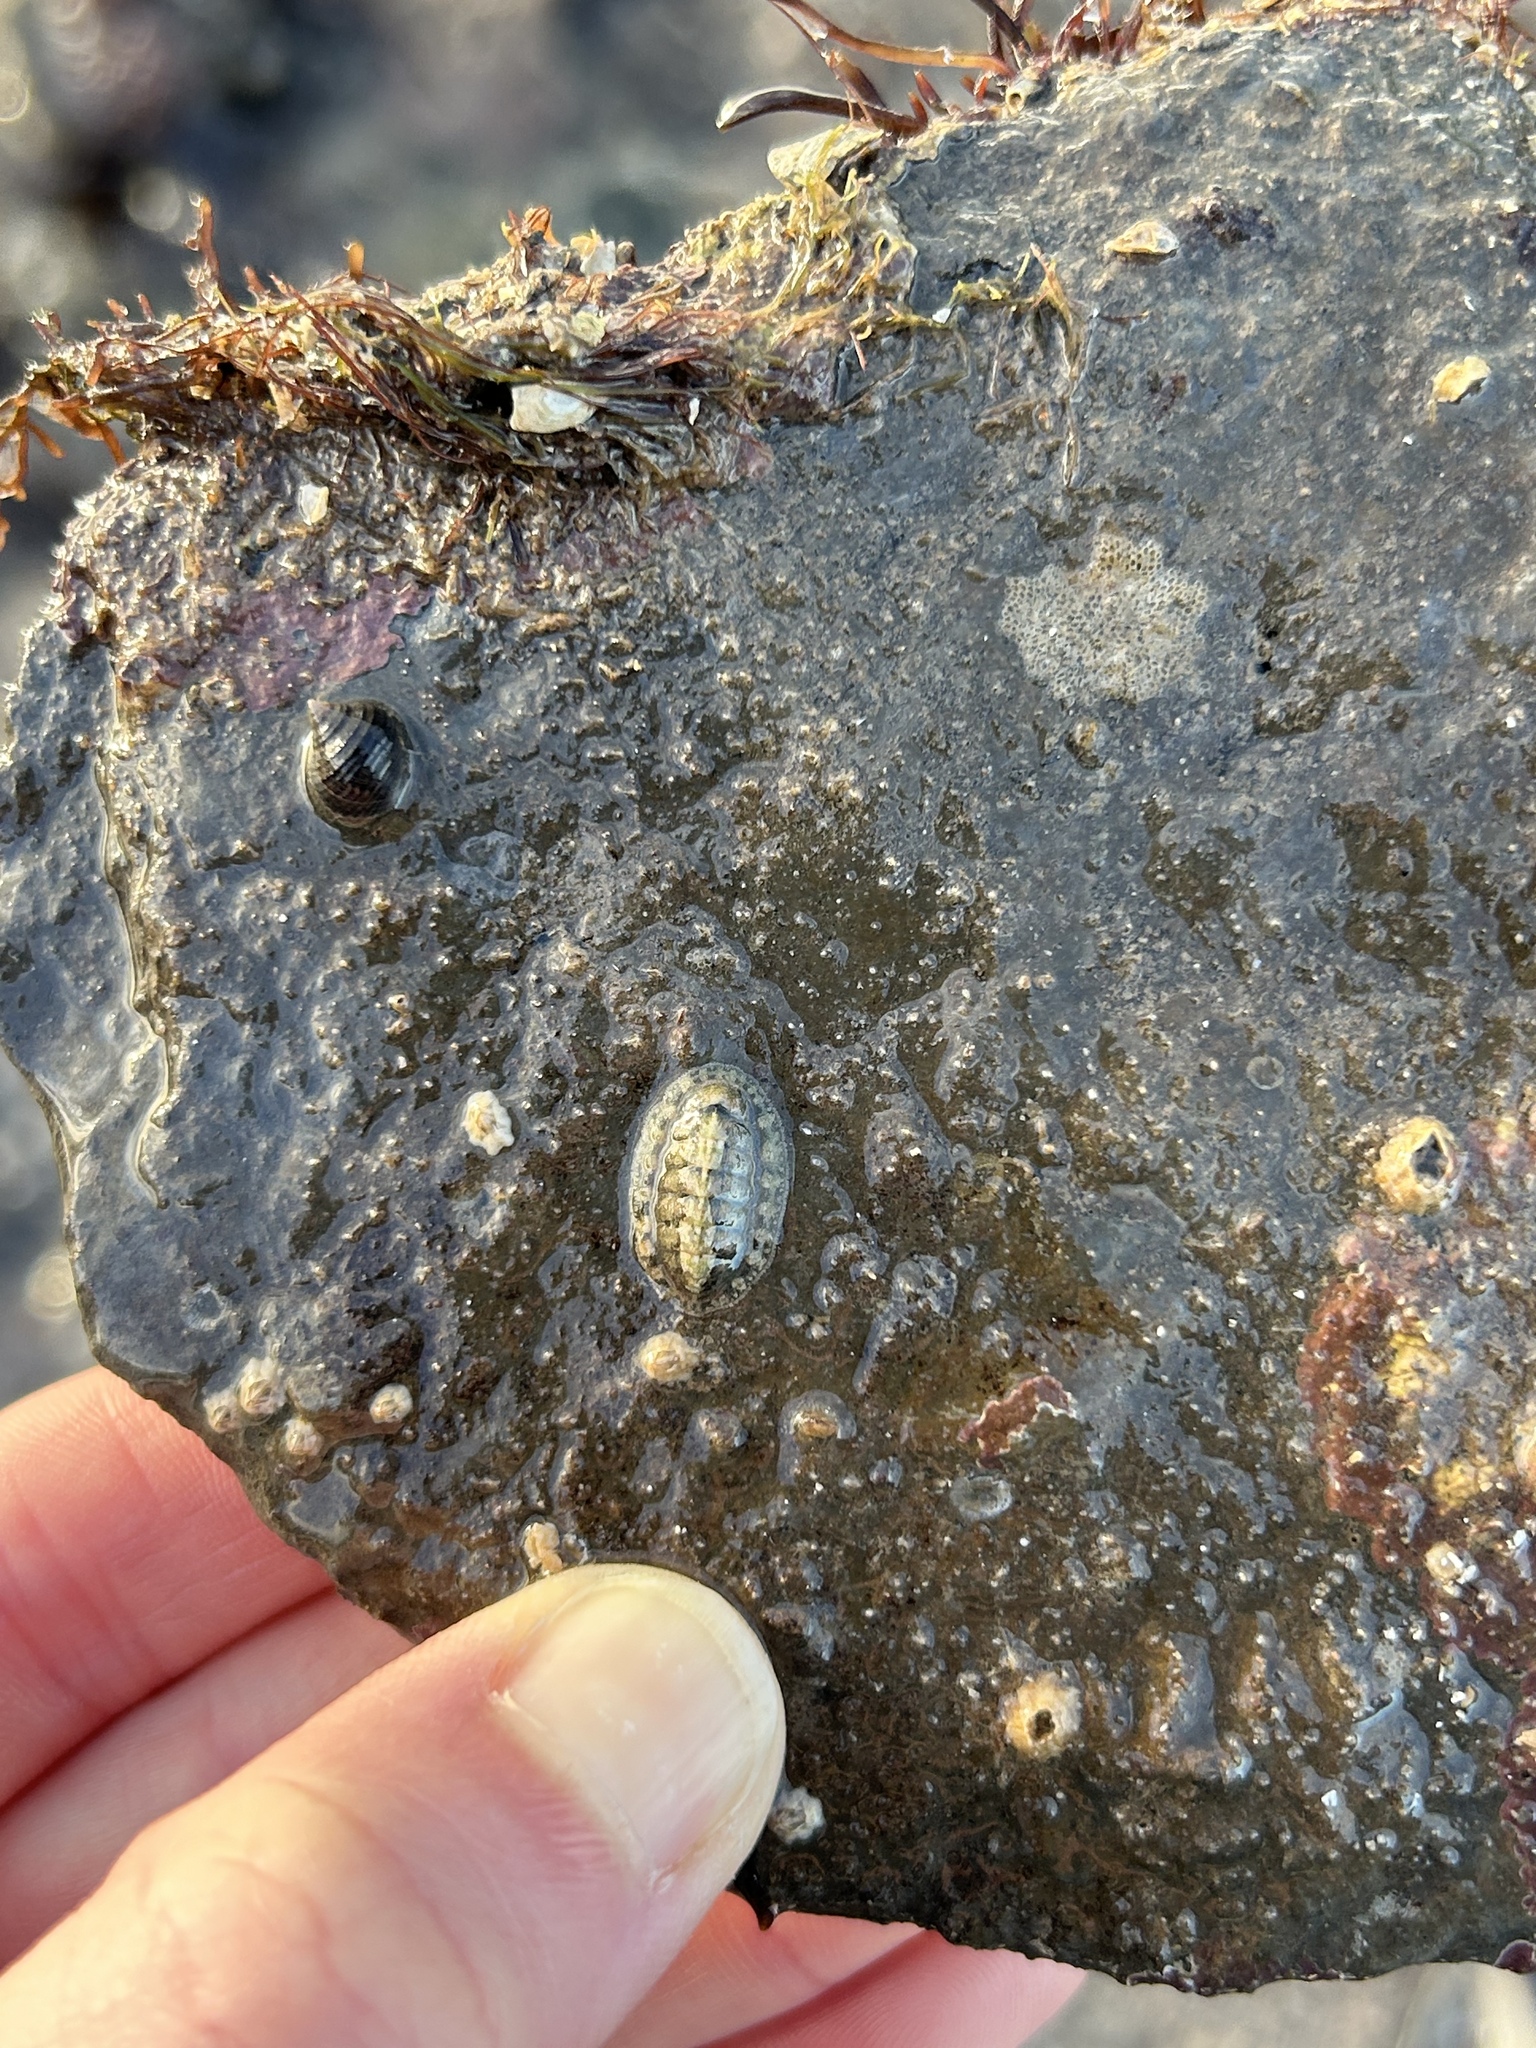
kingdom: Animalia
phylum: Mollusca
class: Polyplacophora
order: Chitonida
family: Tonicellidae
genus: Lepidochitona
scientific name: Lepidochitona cinerea
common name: Cinereous chiton
